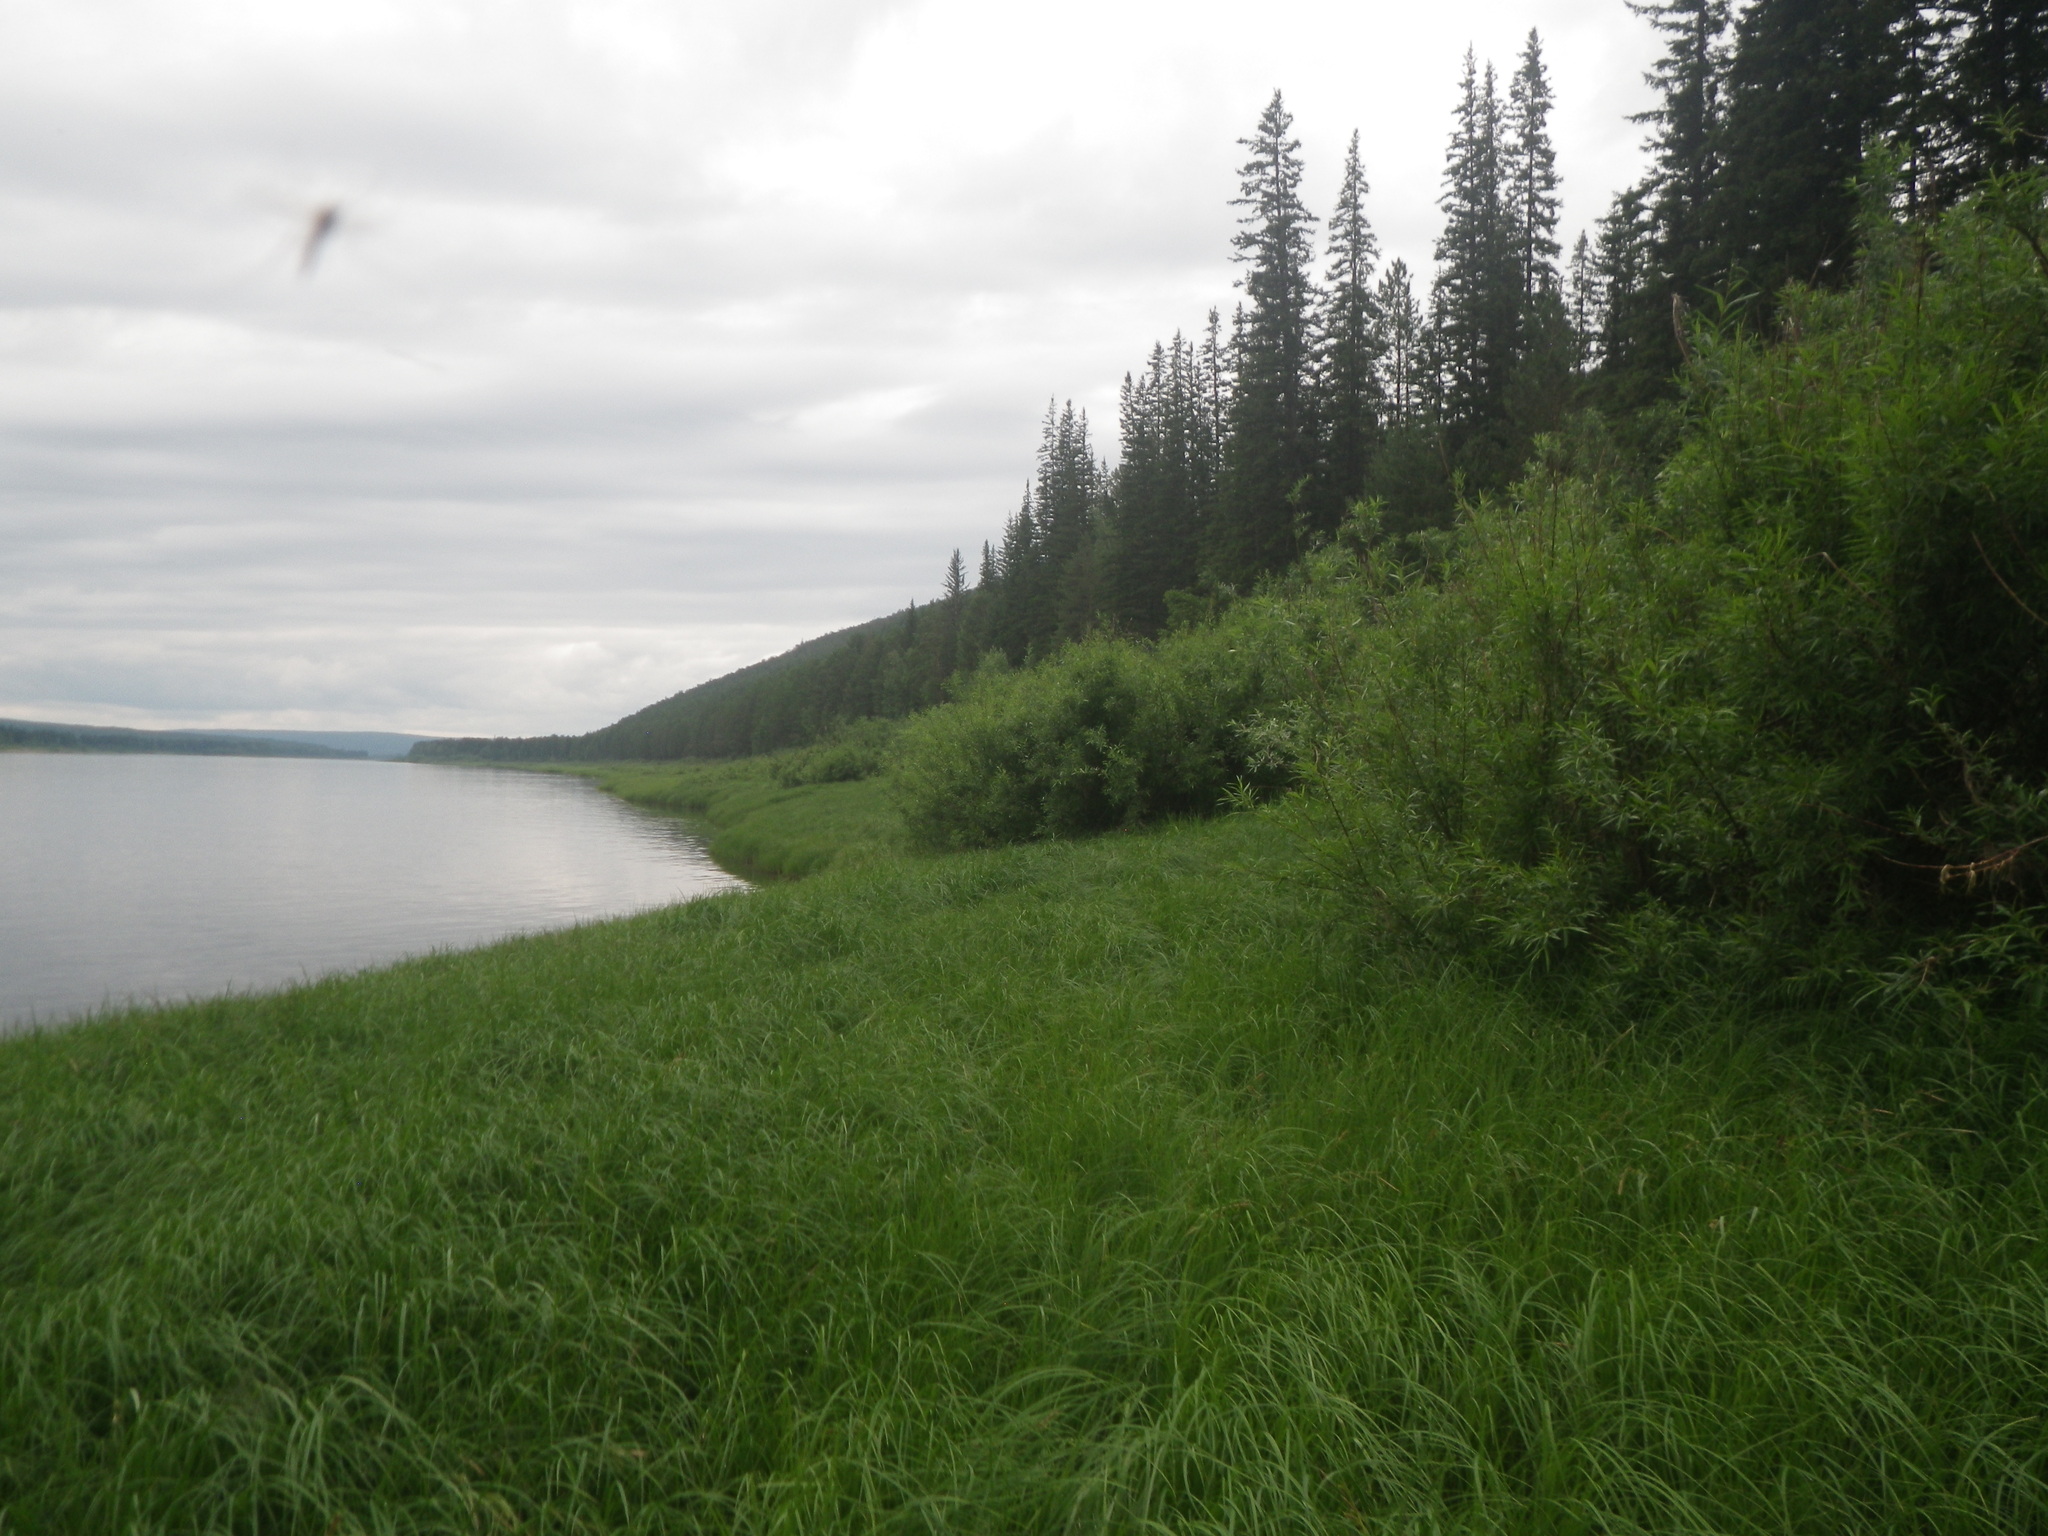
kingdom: Plantae
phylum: Tracheophyta
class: Pinopsida
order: Pinales
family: Pinaceae
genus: Picea
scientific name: Picea obovata
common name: Siberian spruce
